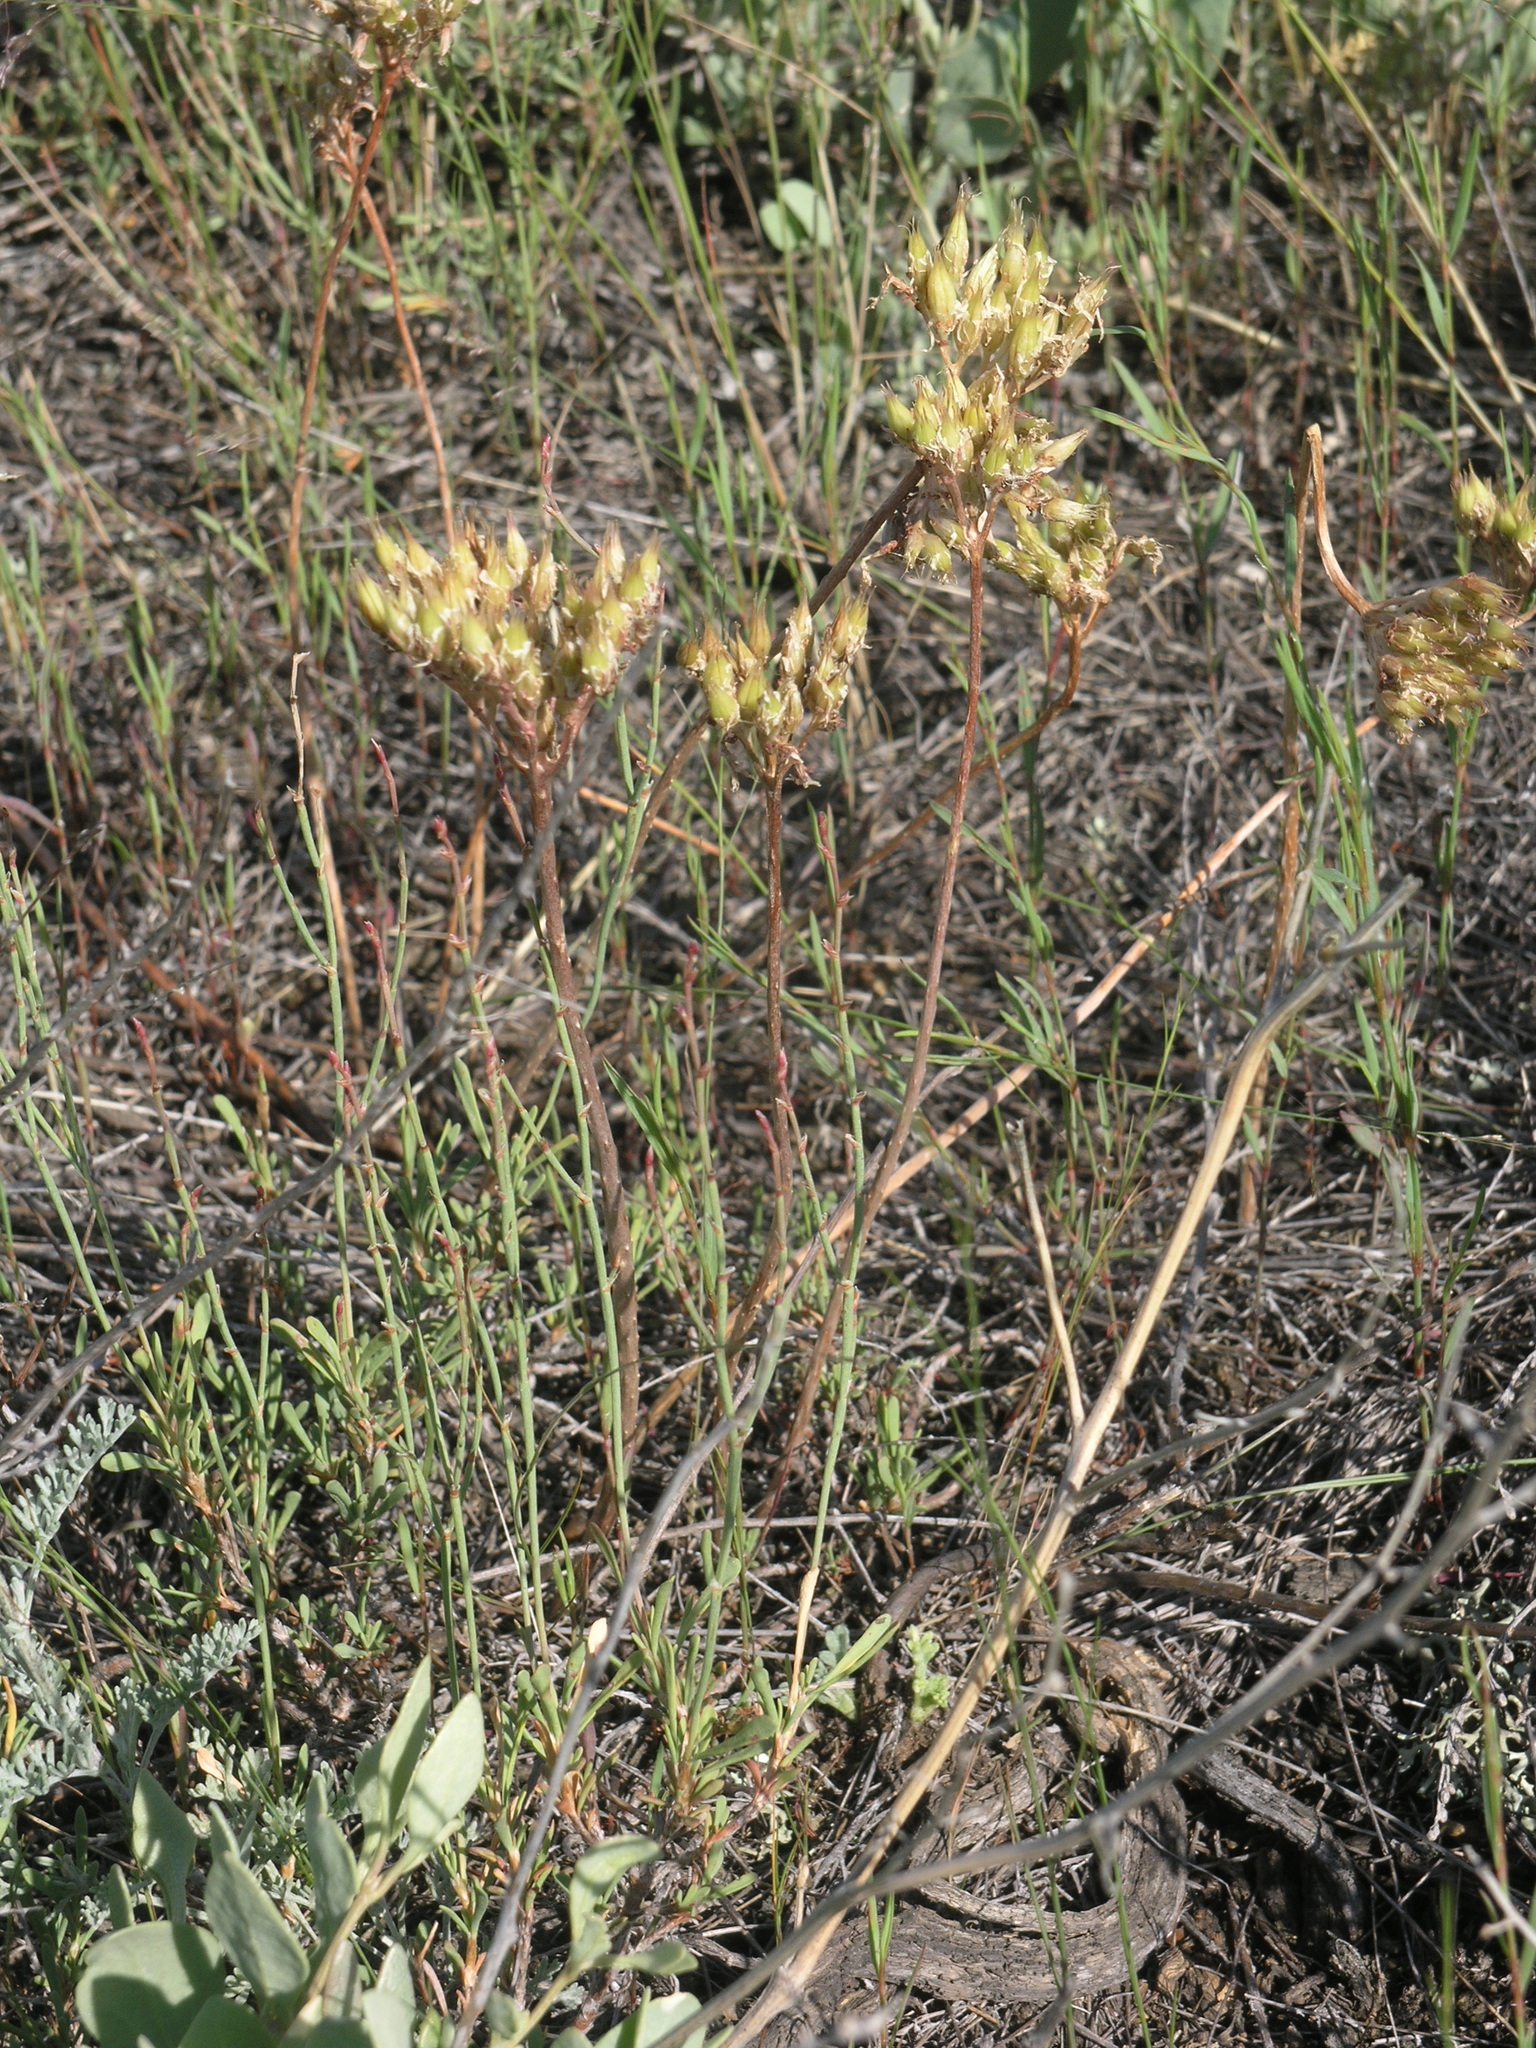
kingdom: Plantae
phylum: Tracheophyta
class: Magnoliopsida
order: Saxifragales
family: Crassulaceae
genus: Pseudosedum
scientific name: Pseudosedum lievenii
